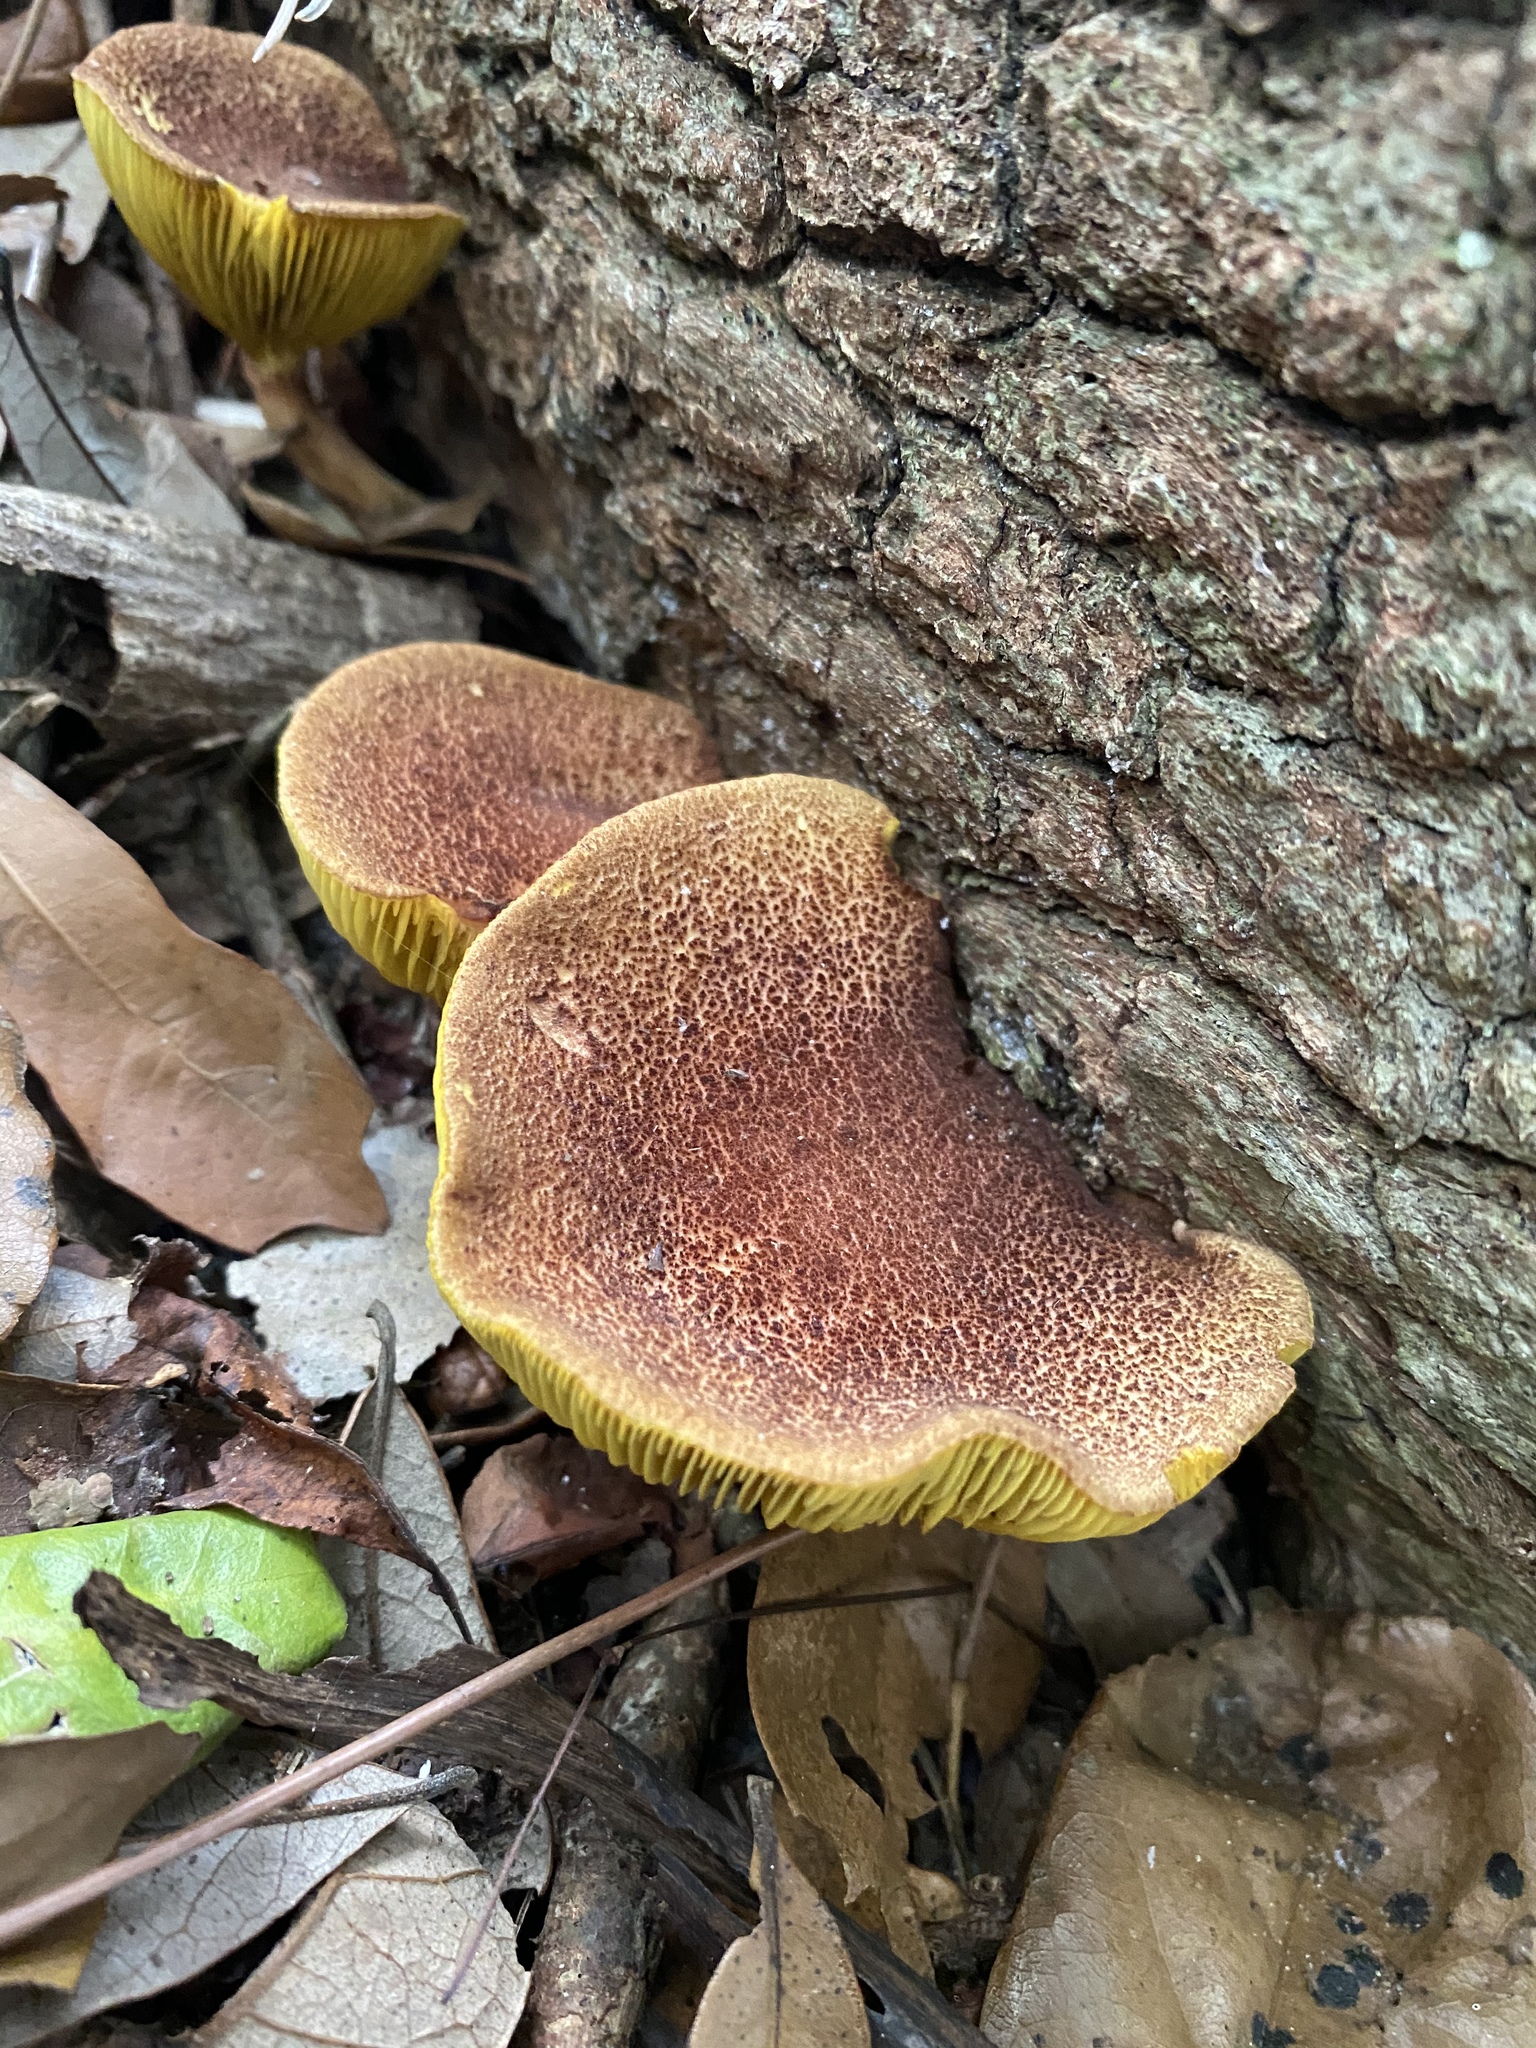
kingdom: Fungi
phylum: Basidiomycota
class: Agaricomycetes
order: Boletales
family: Boletaceae
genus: Phylloporus
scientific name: Phylloporus rhodoxanthus
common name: Golden gilled bolete
